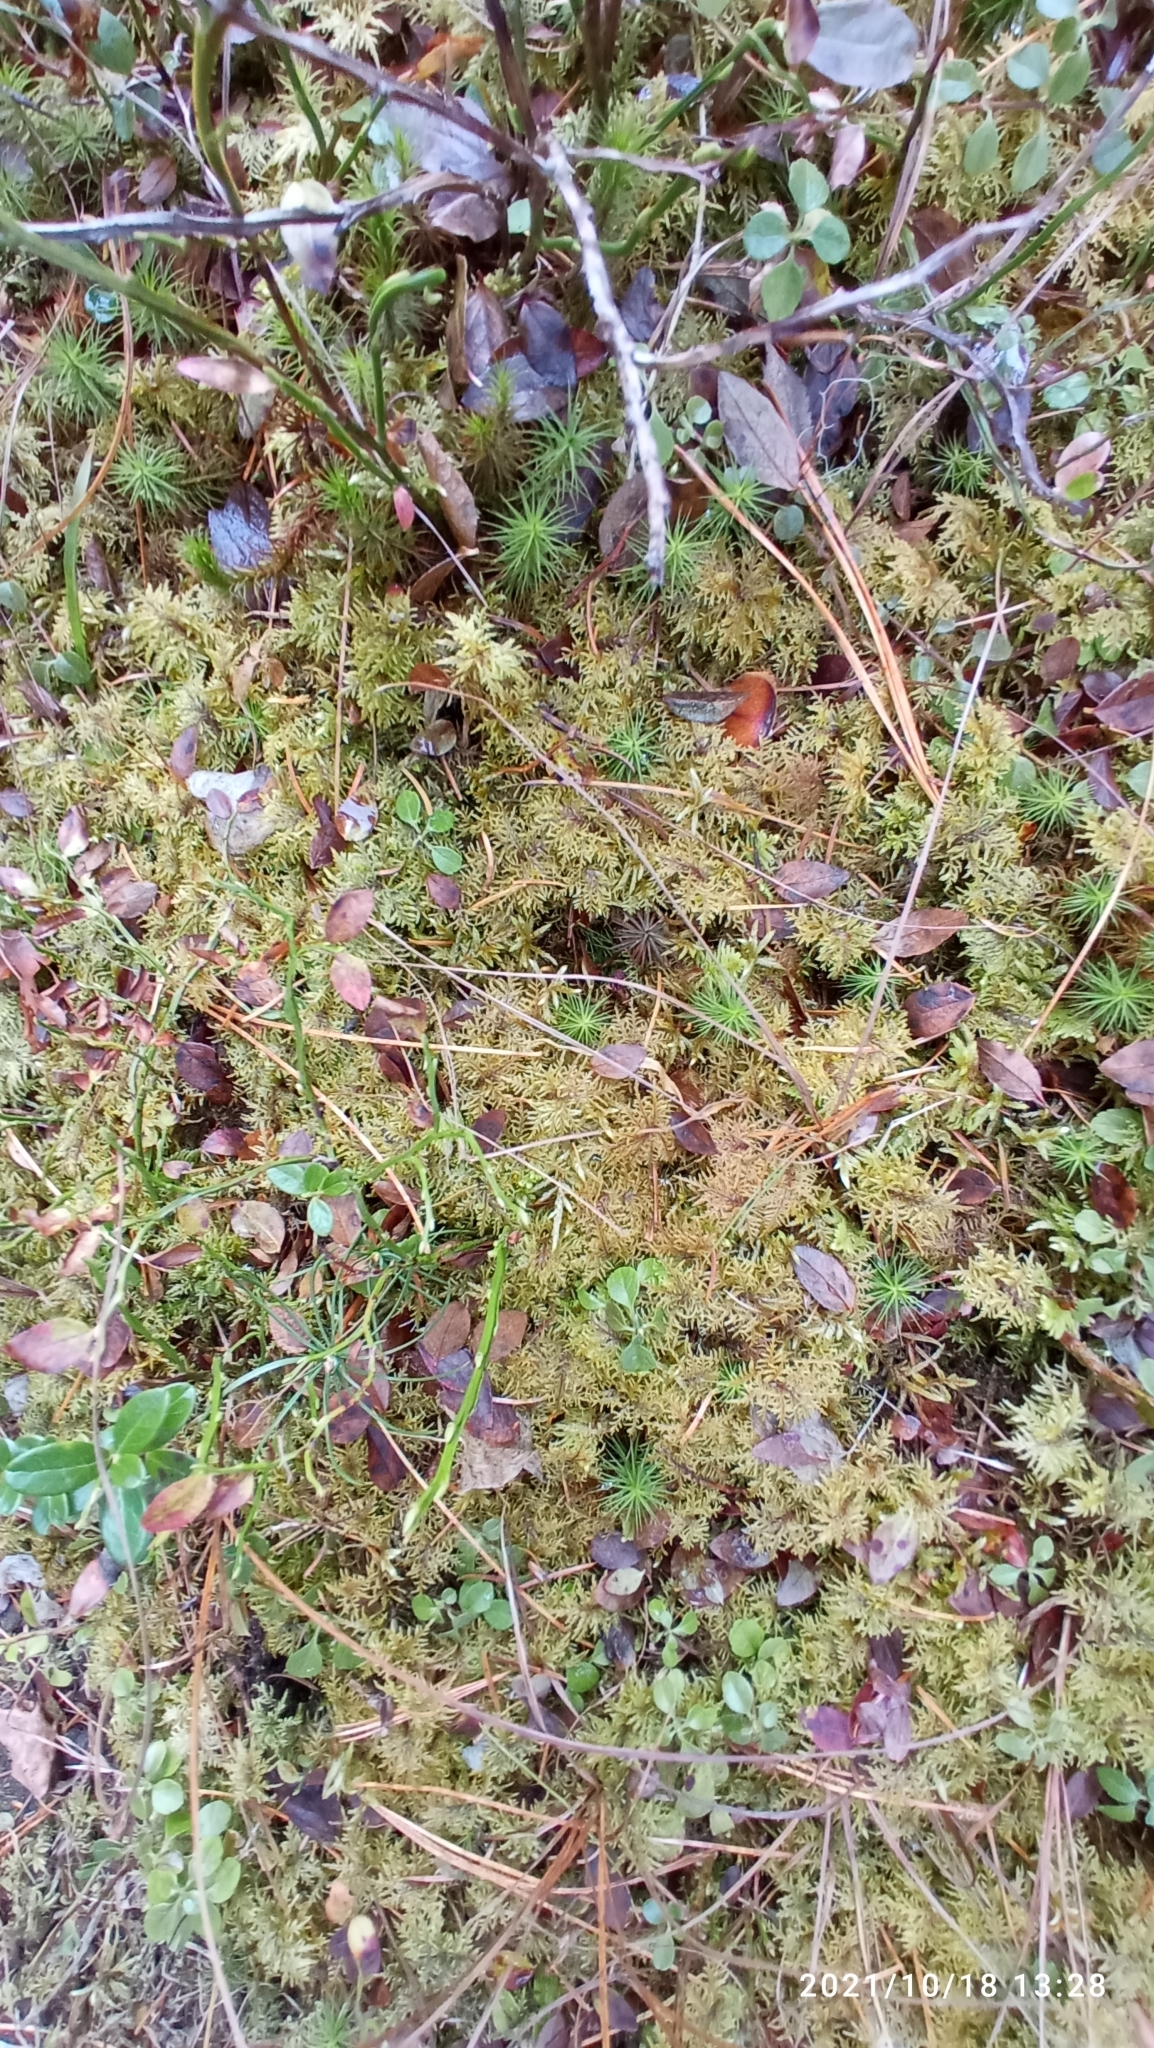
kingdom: Plantae
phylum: Bryophyta
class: Bryopsida
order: Hypnales
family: Hylocomiaceae
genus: Hylocomium
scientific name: Hylocomium splendens
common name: Stairstep moss
